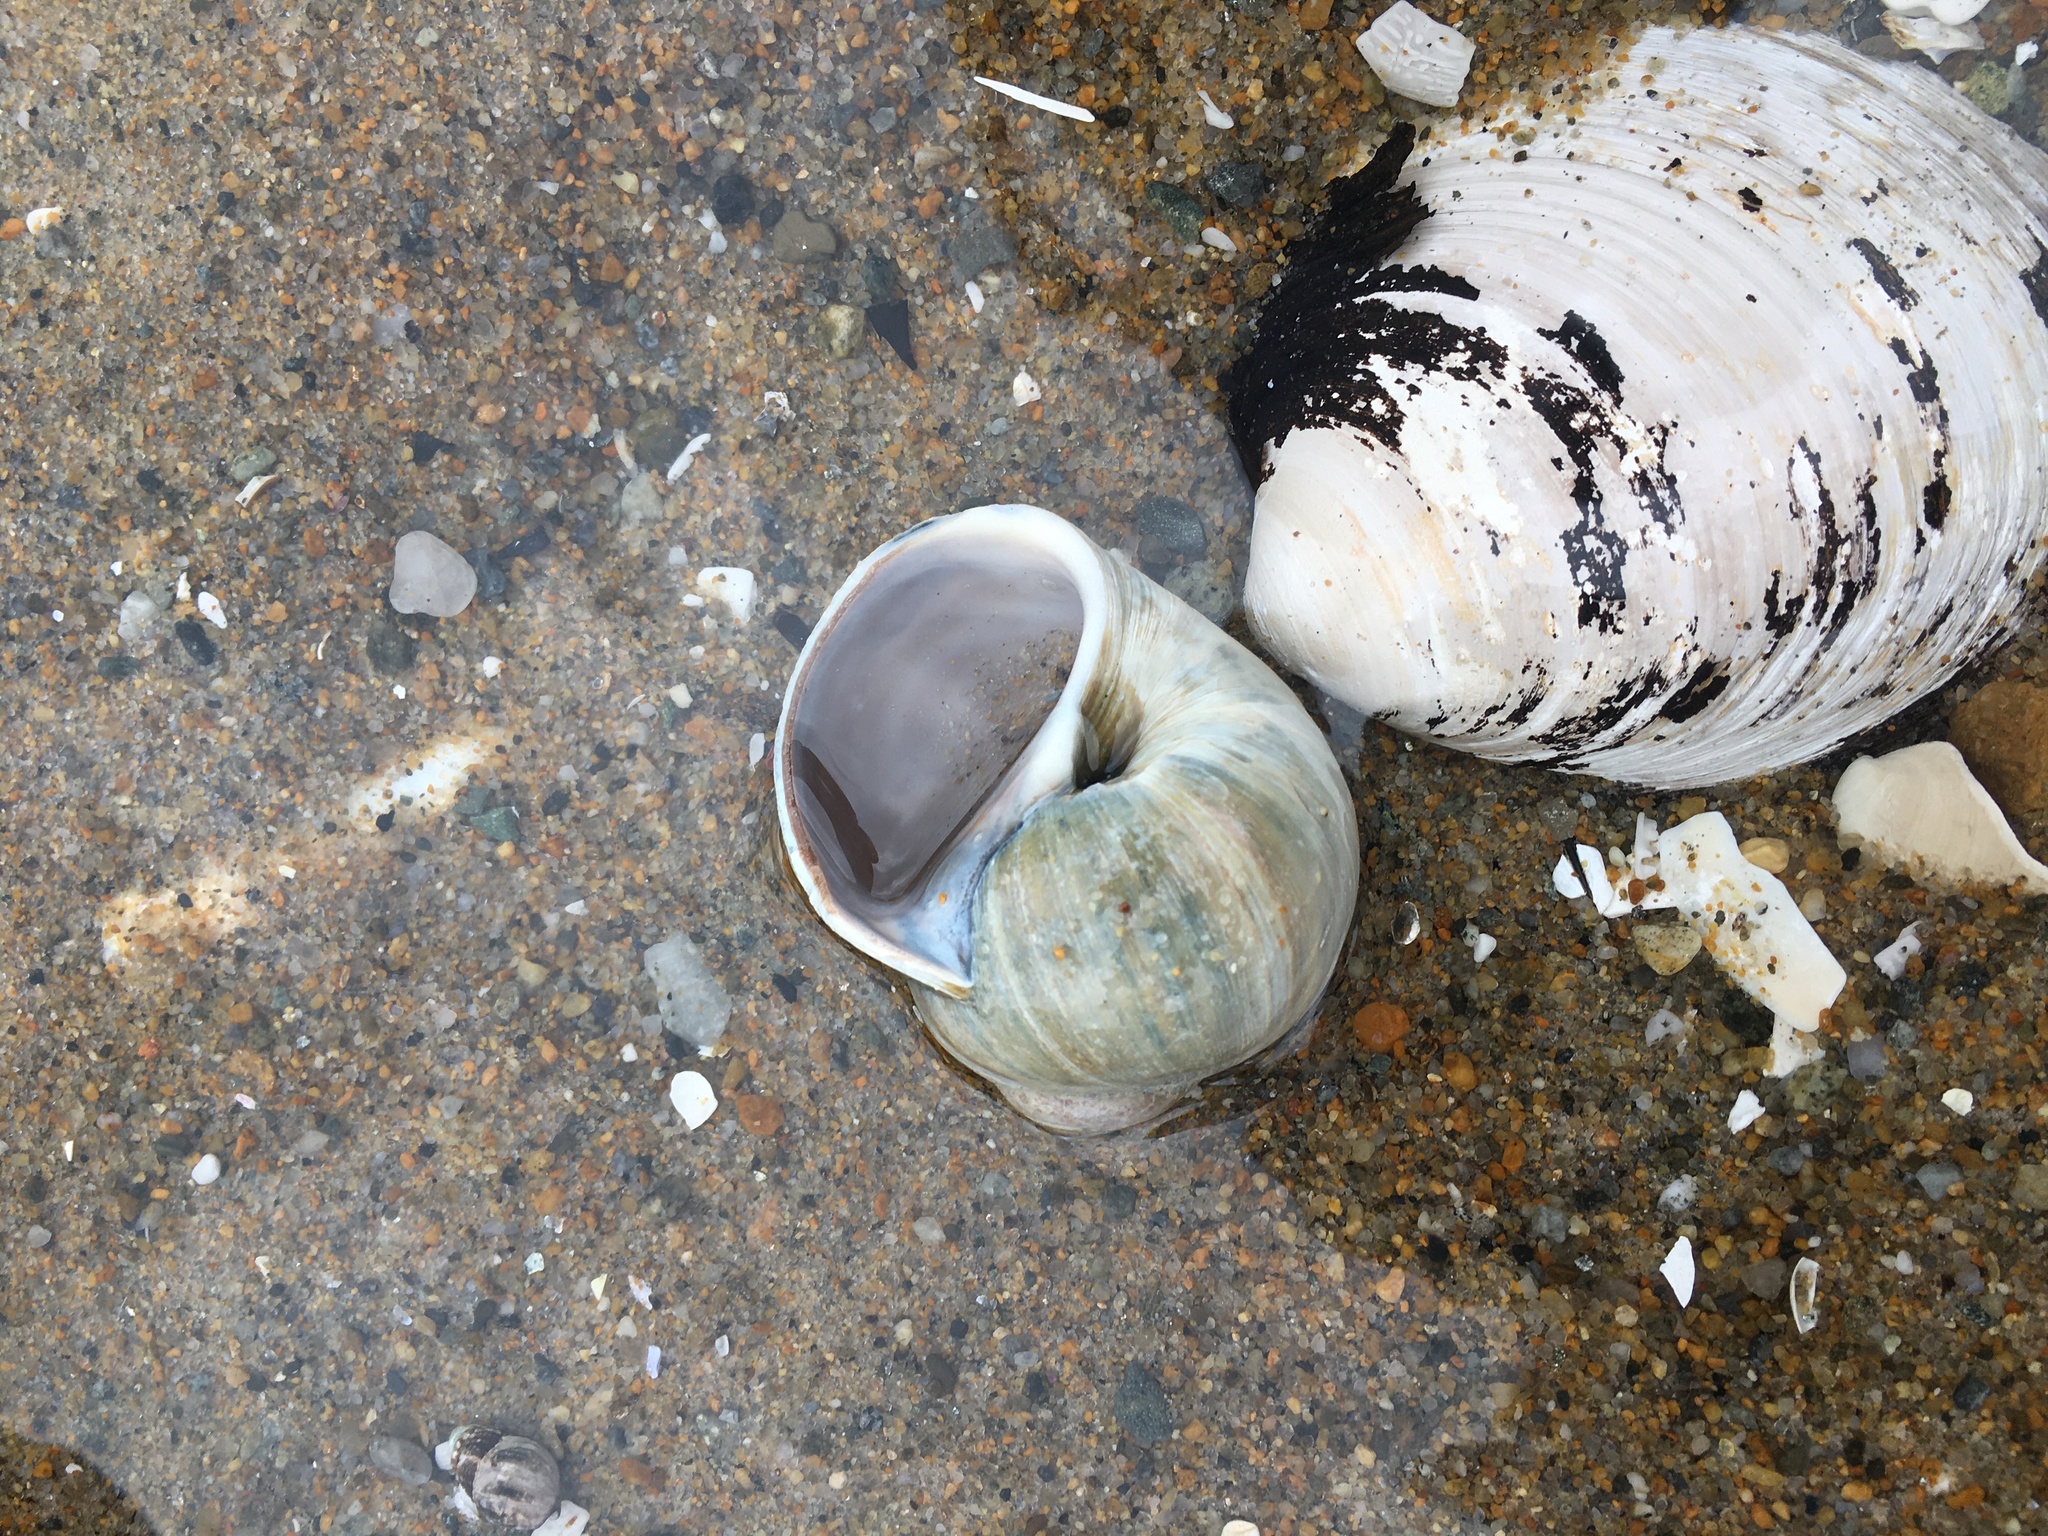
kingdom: Animalia
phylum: Mollusca
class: Gastropoda
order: Littorinimorpha
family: Naticidae
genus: Euspira
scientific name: Euspira heros
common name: Common northern moonsnail
